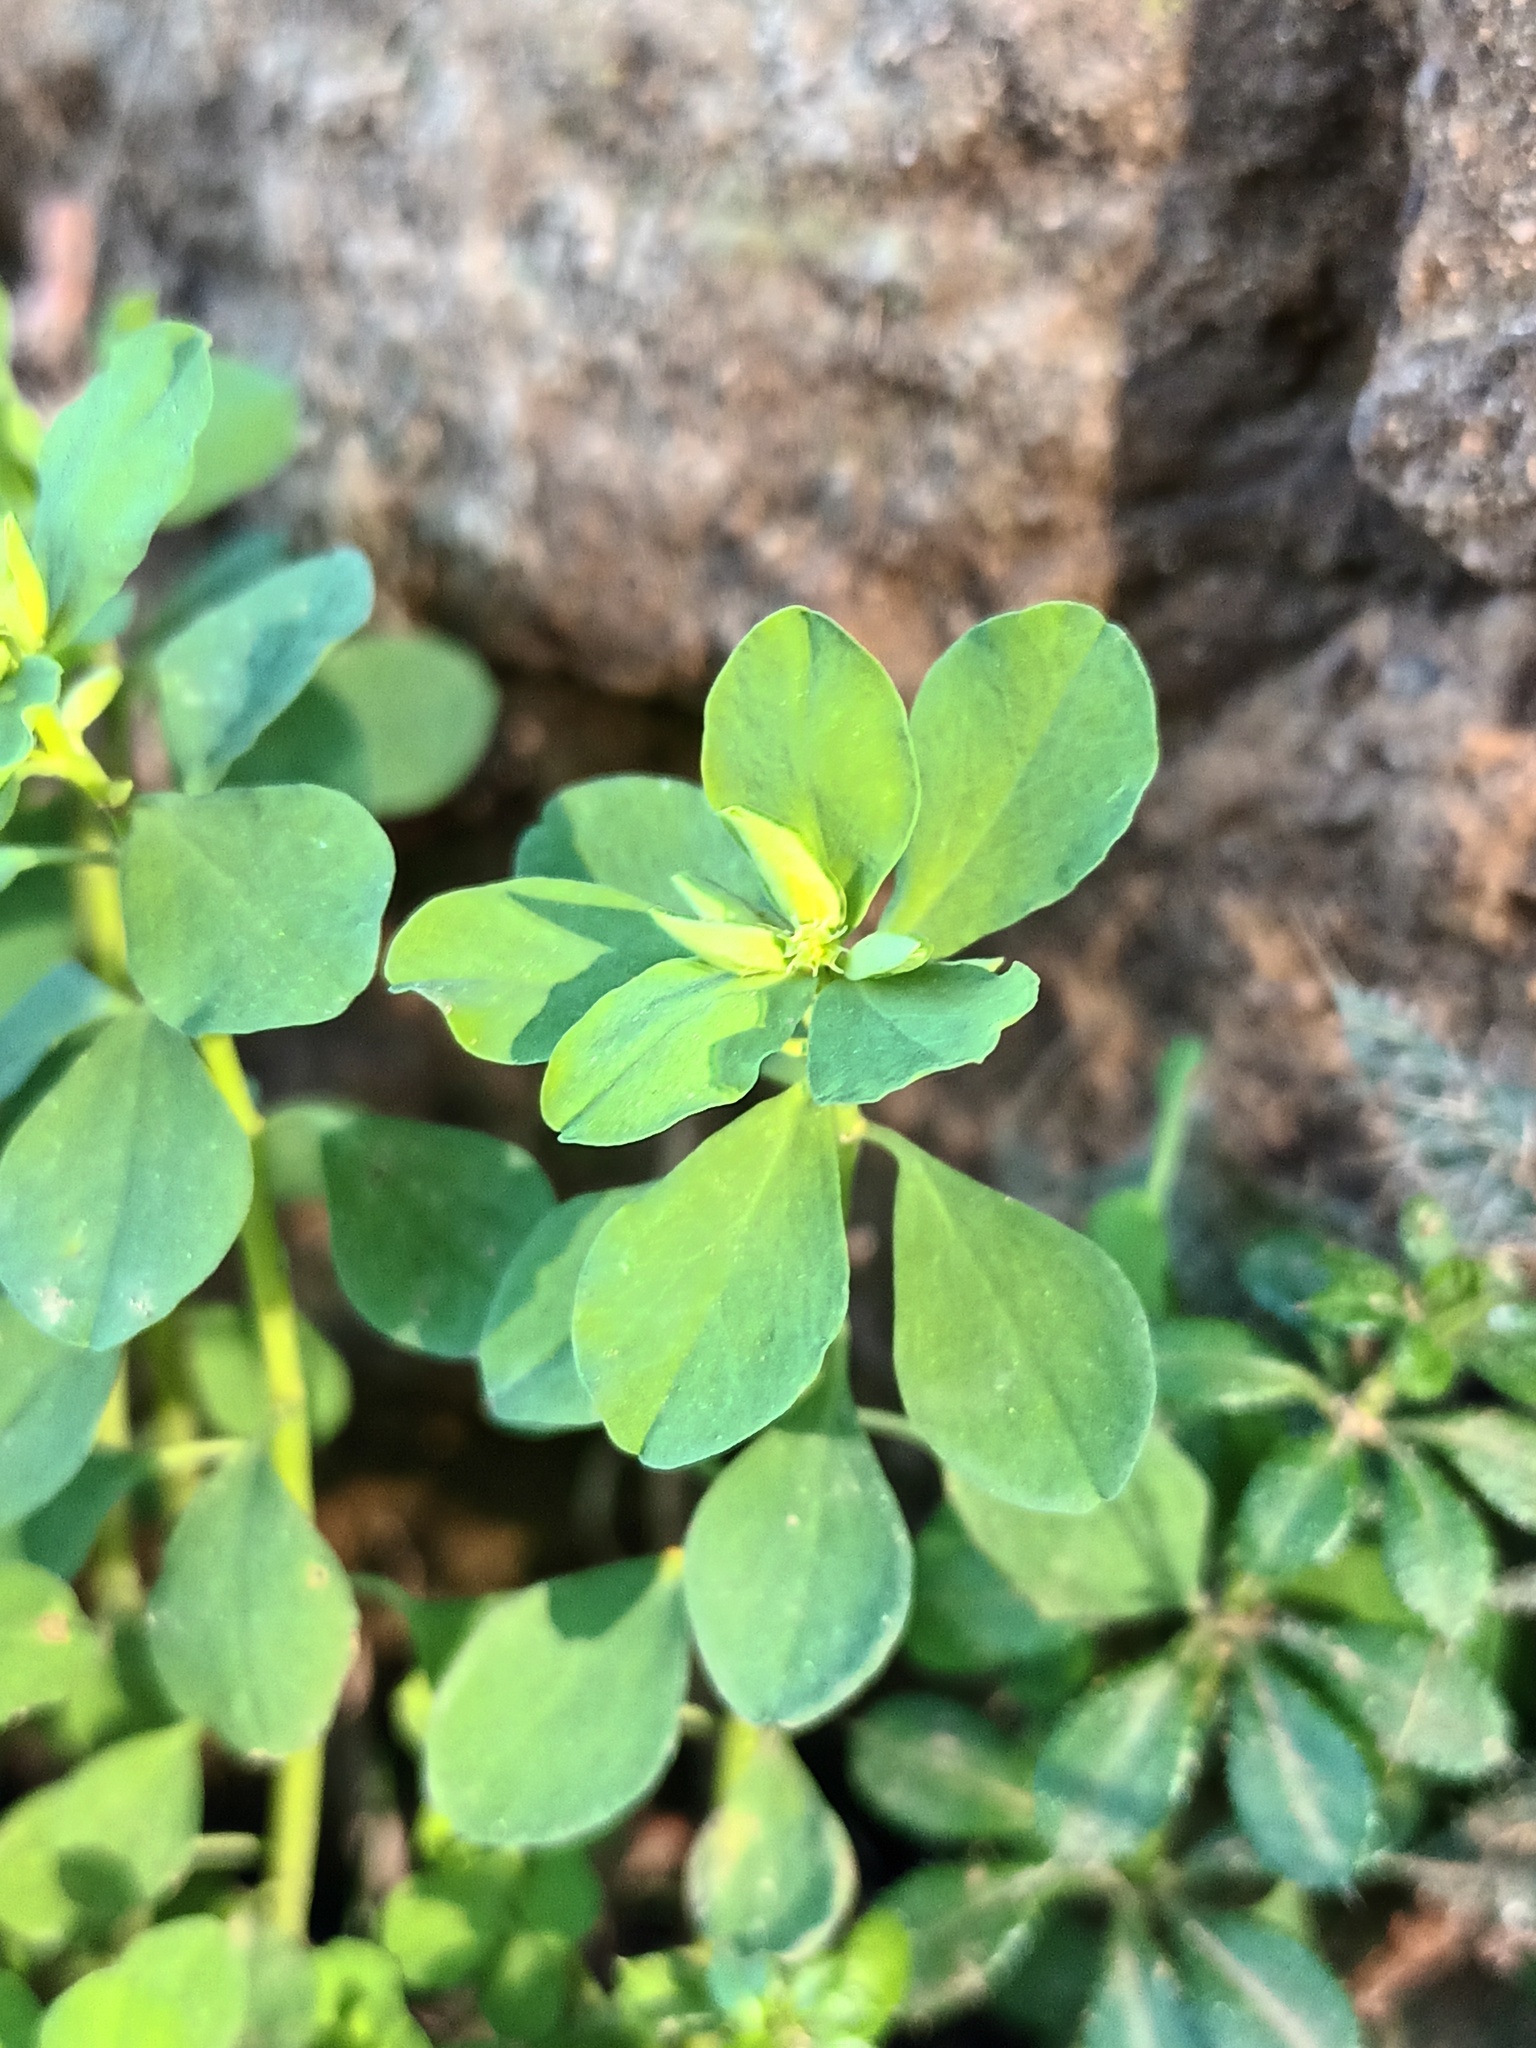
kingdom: Plantae
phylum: Tracheophyta
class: Magnoliopsida
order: Malpighiales
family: Euphorbiaceae
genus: Euphorbia
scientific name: Euphorbia peplus
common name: Petty spurge
